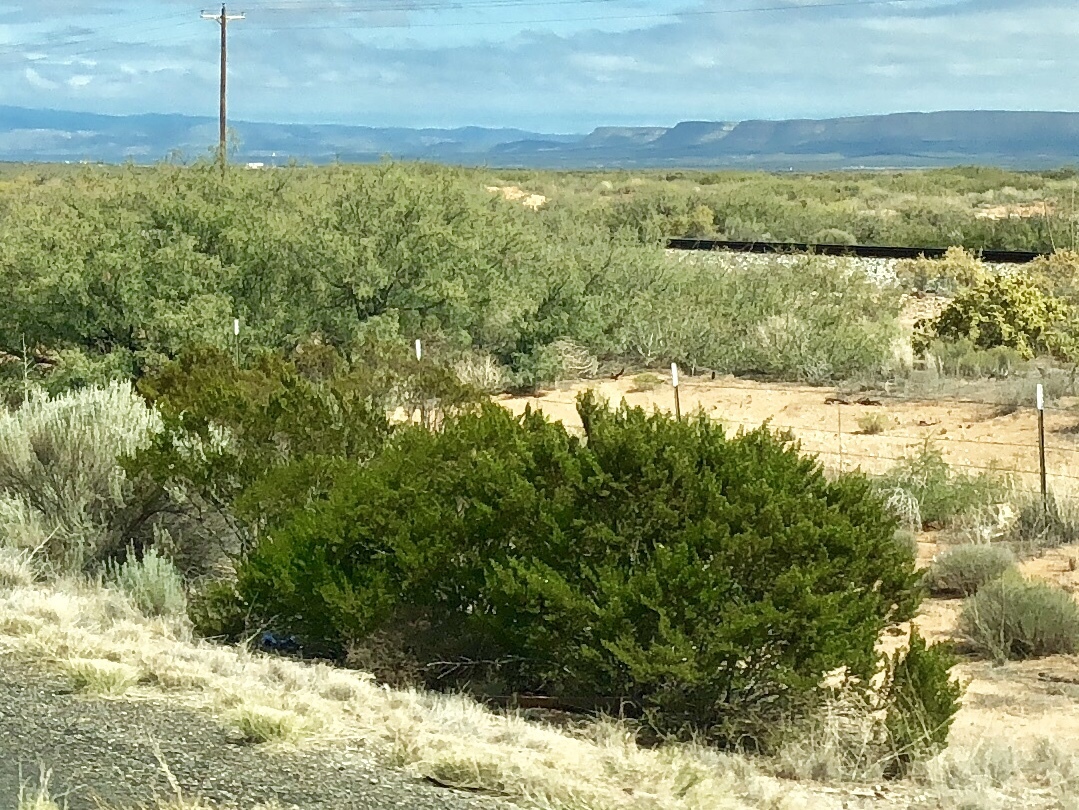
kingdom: Plantae
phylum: Tracheophyta
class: Magnoliopsida
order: Zygophyllales
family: Zygophyllaceae
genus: Larrea
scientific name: Larrea tridentata
